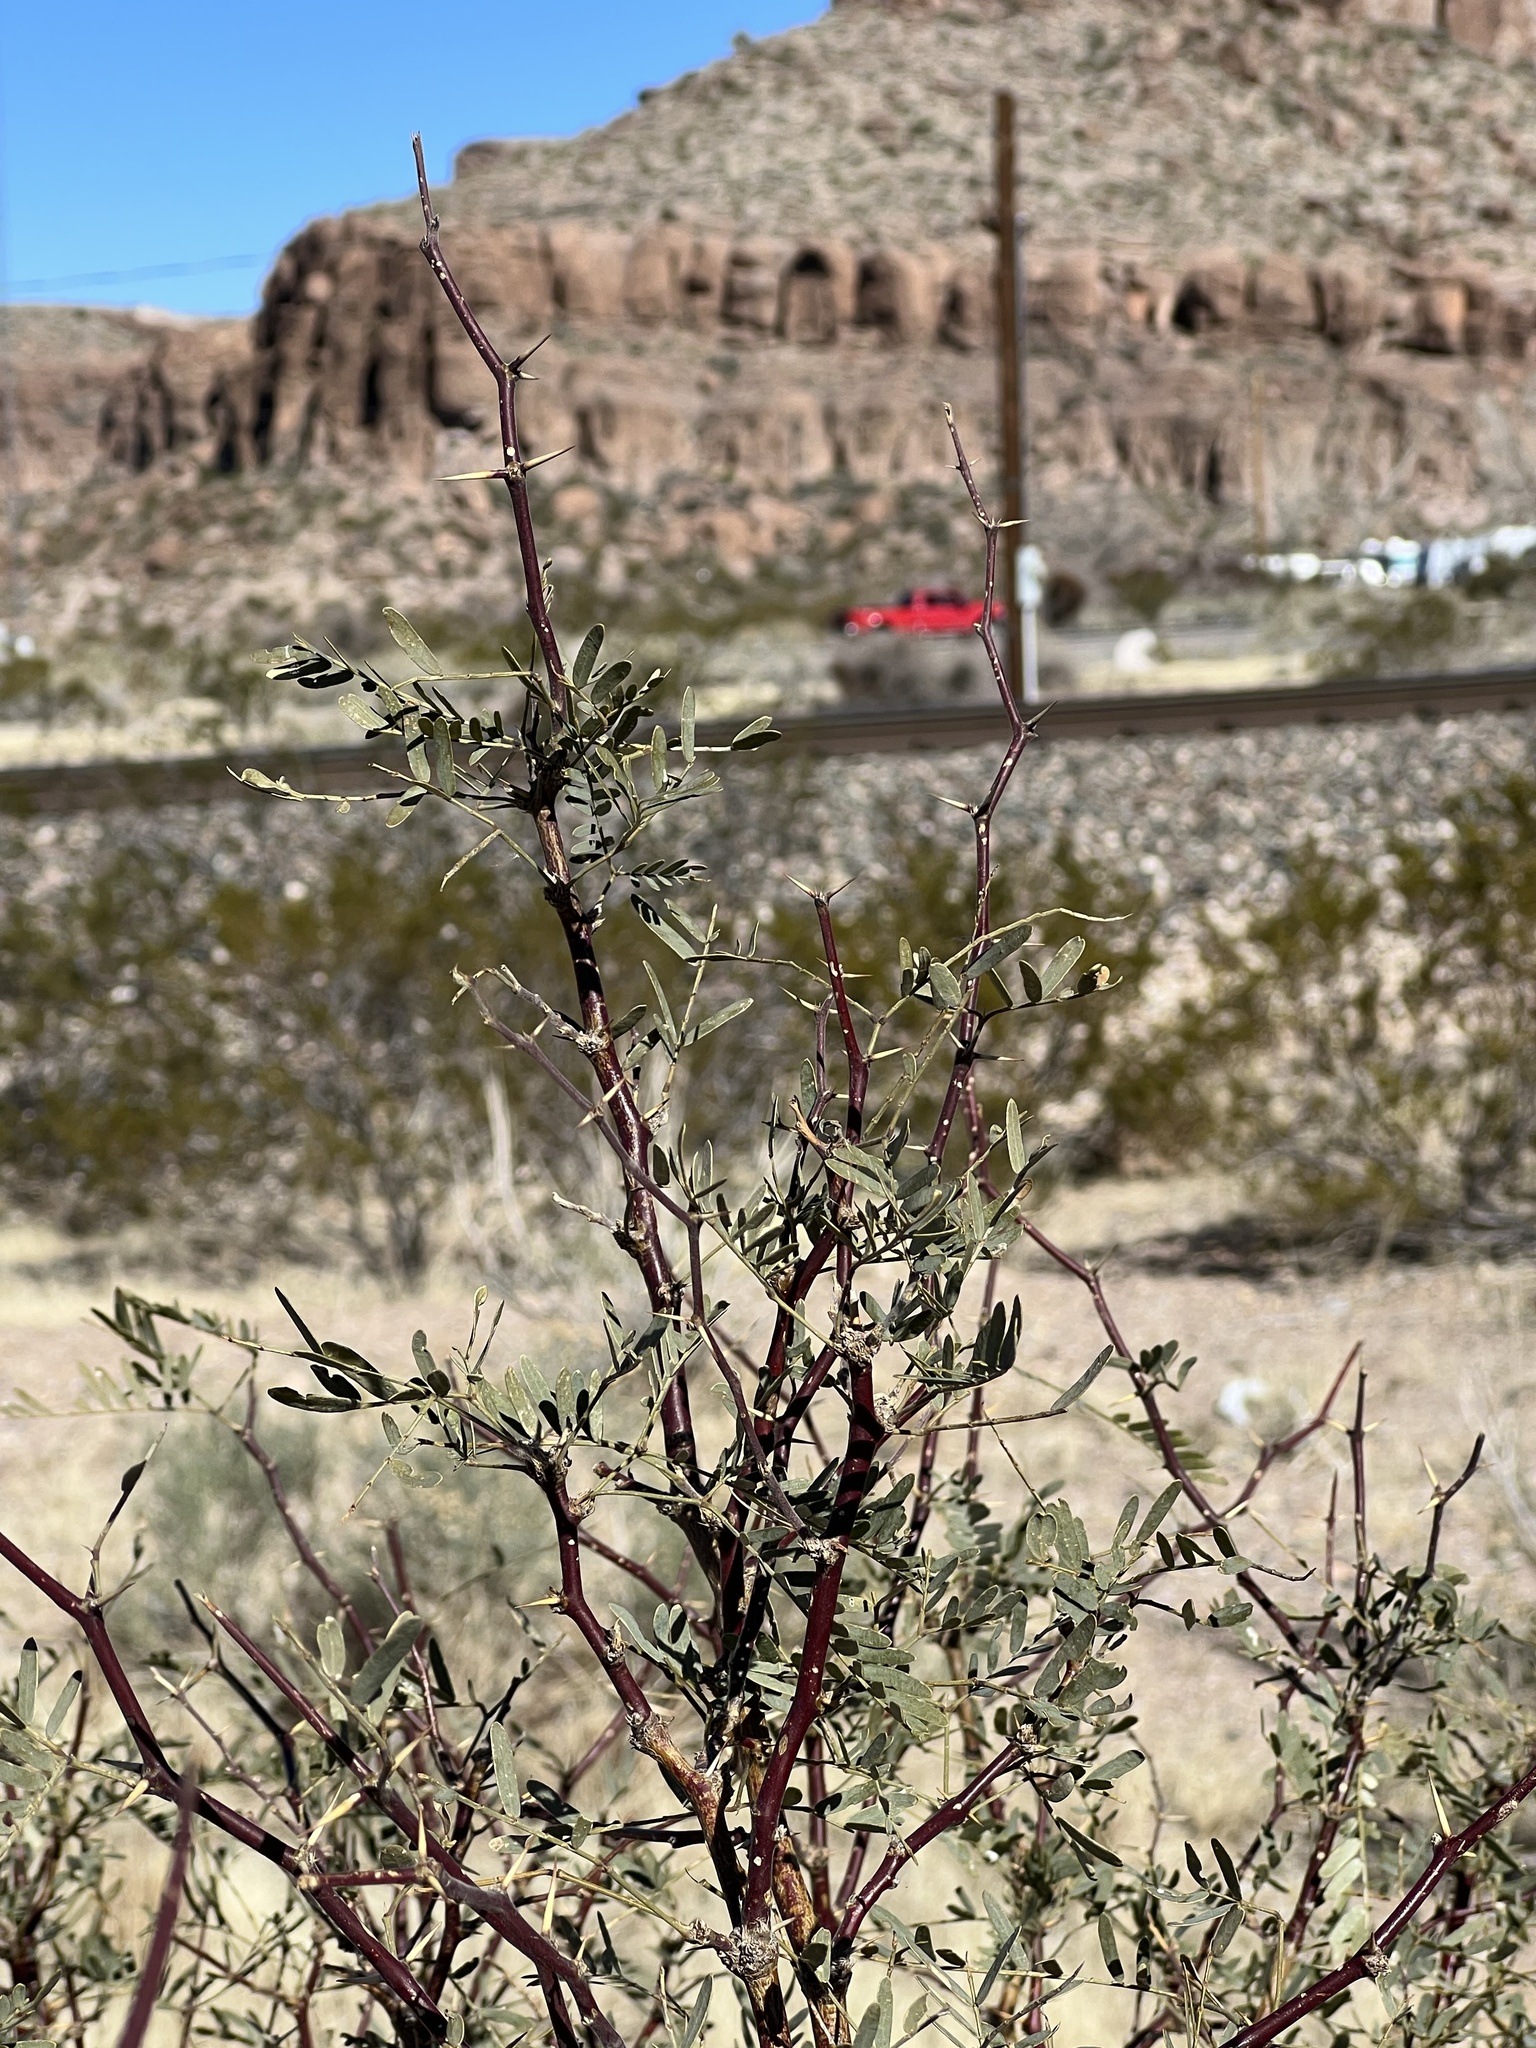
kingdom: Plantae
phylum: Tracheophyta
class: Magnoliopsida
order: Fabales
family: Fabaceae
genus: Prosopis
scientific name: Prosopis pubescens
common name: Screw-bean
